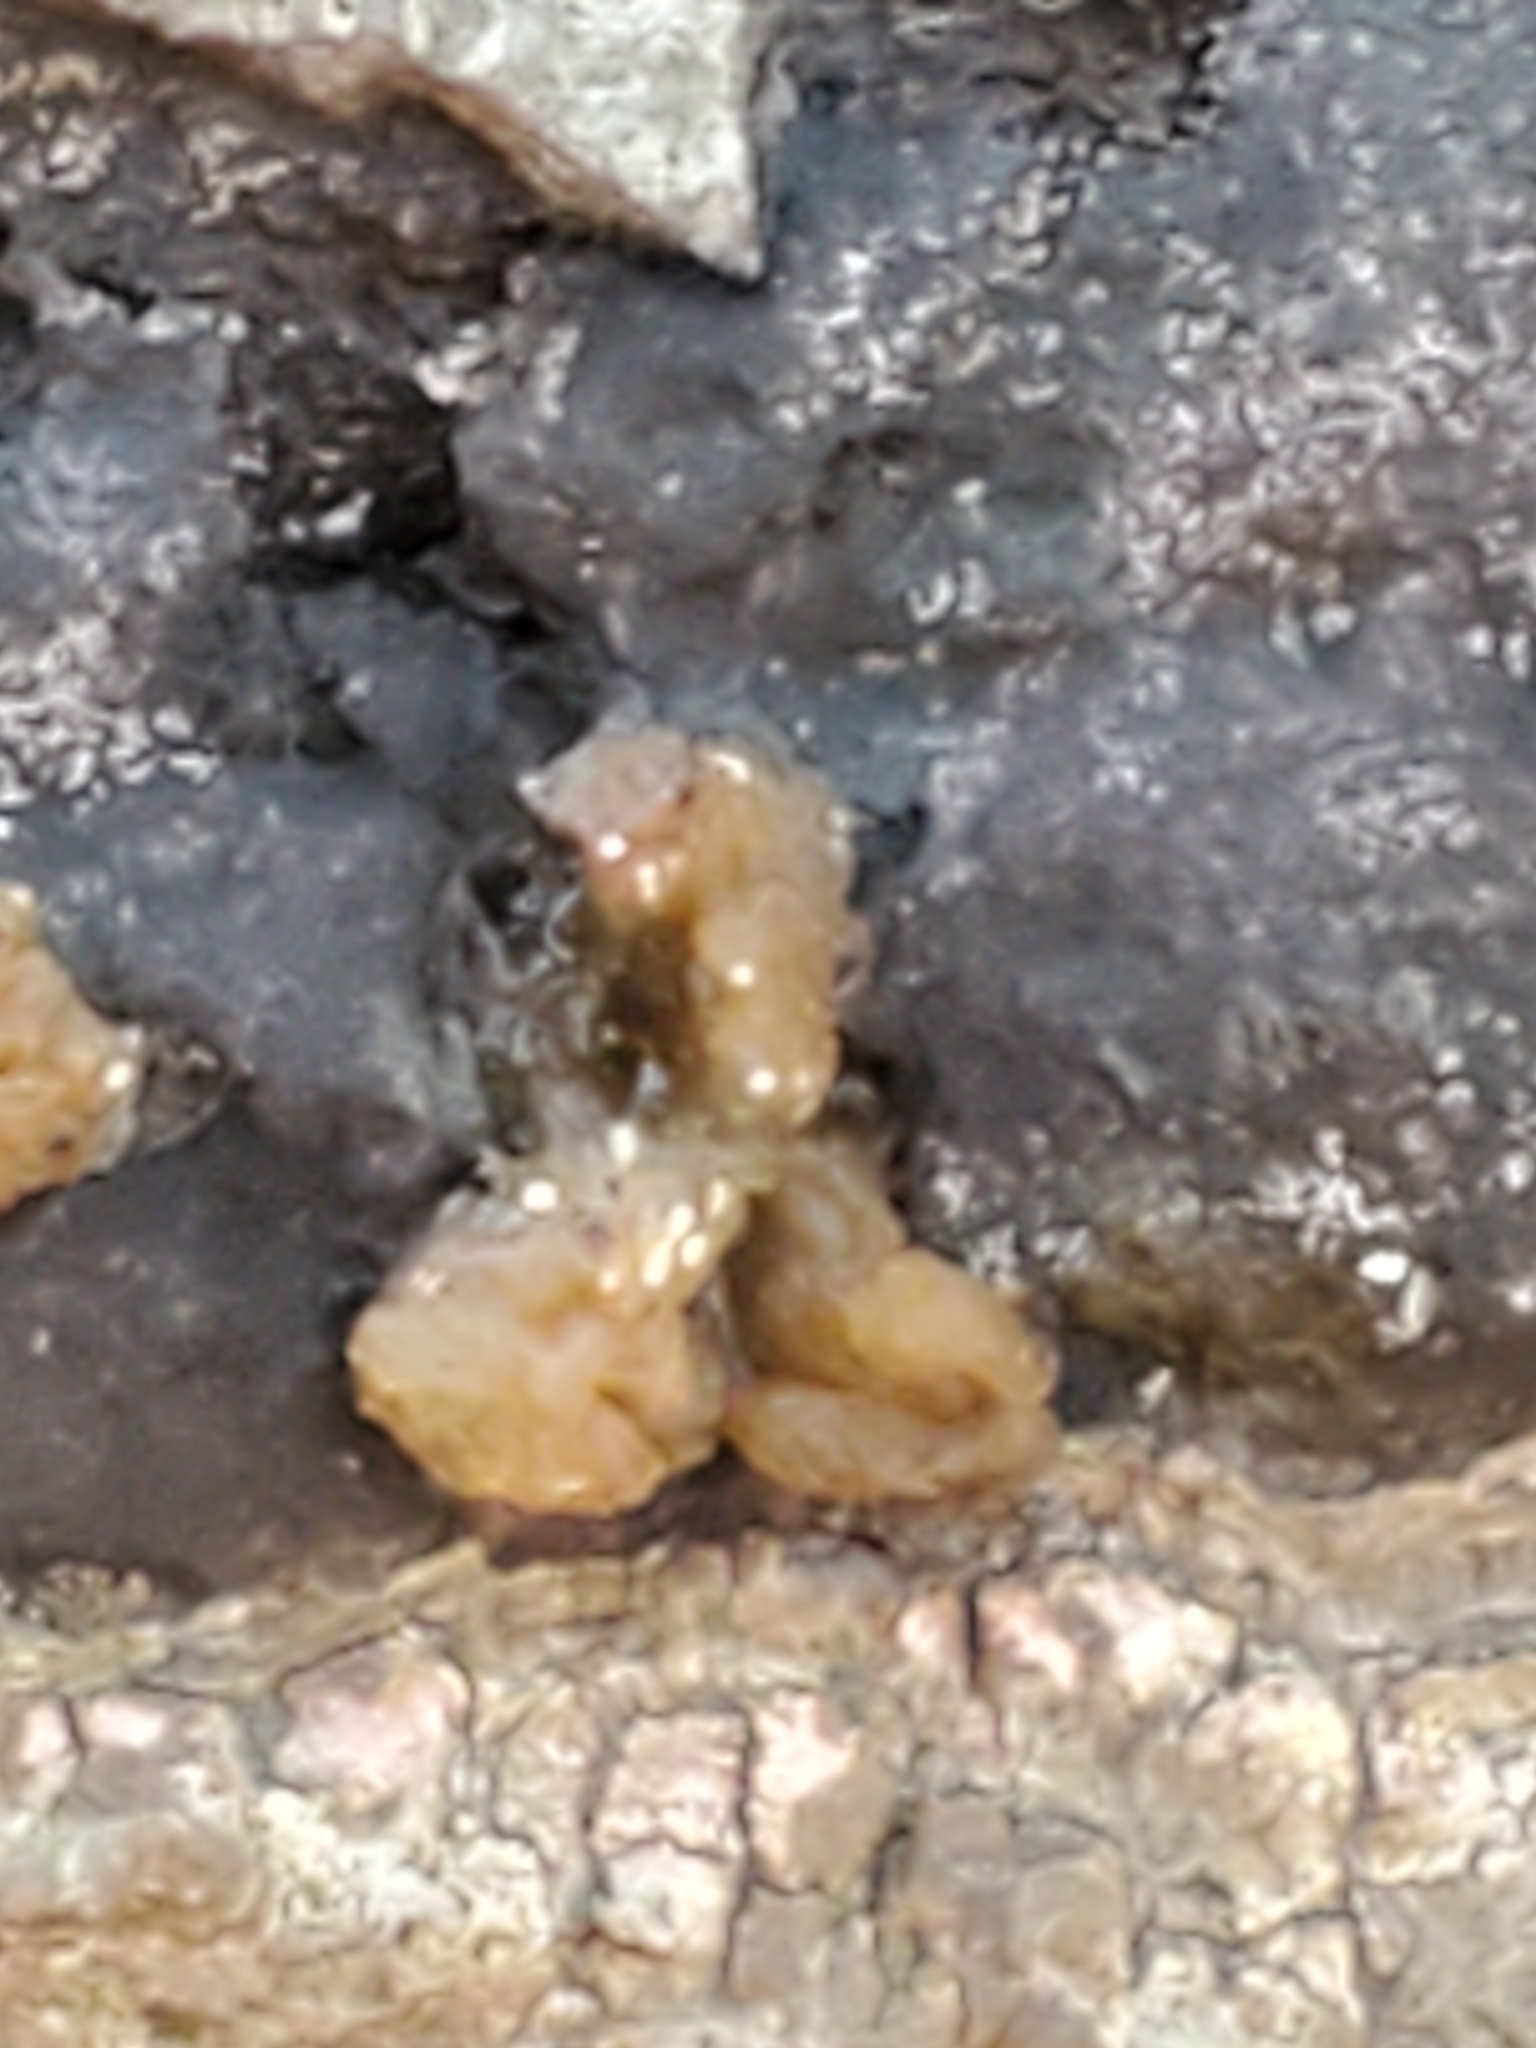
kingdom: Fungi
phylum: Basidiomycota
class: Agaricomycetes
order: Auriculariales
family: Hyaloriaceae
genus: Myxarium
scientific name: Myxarium nucleatum
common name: Crystal brain fungus
